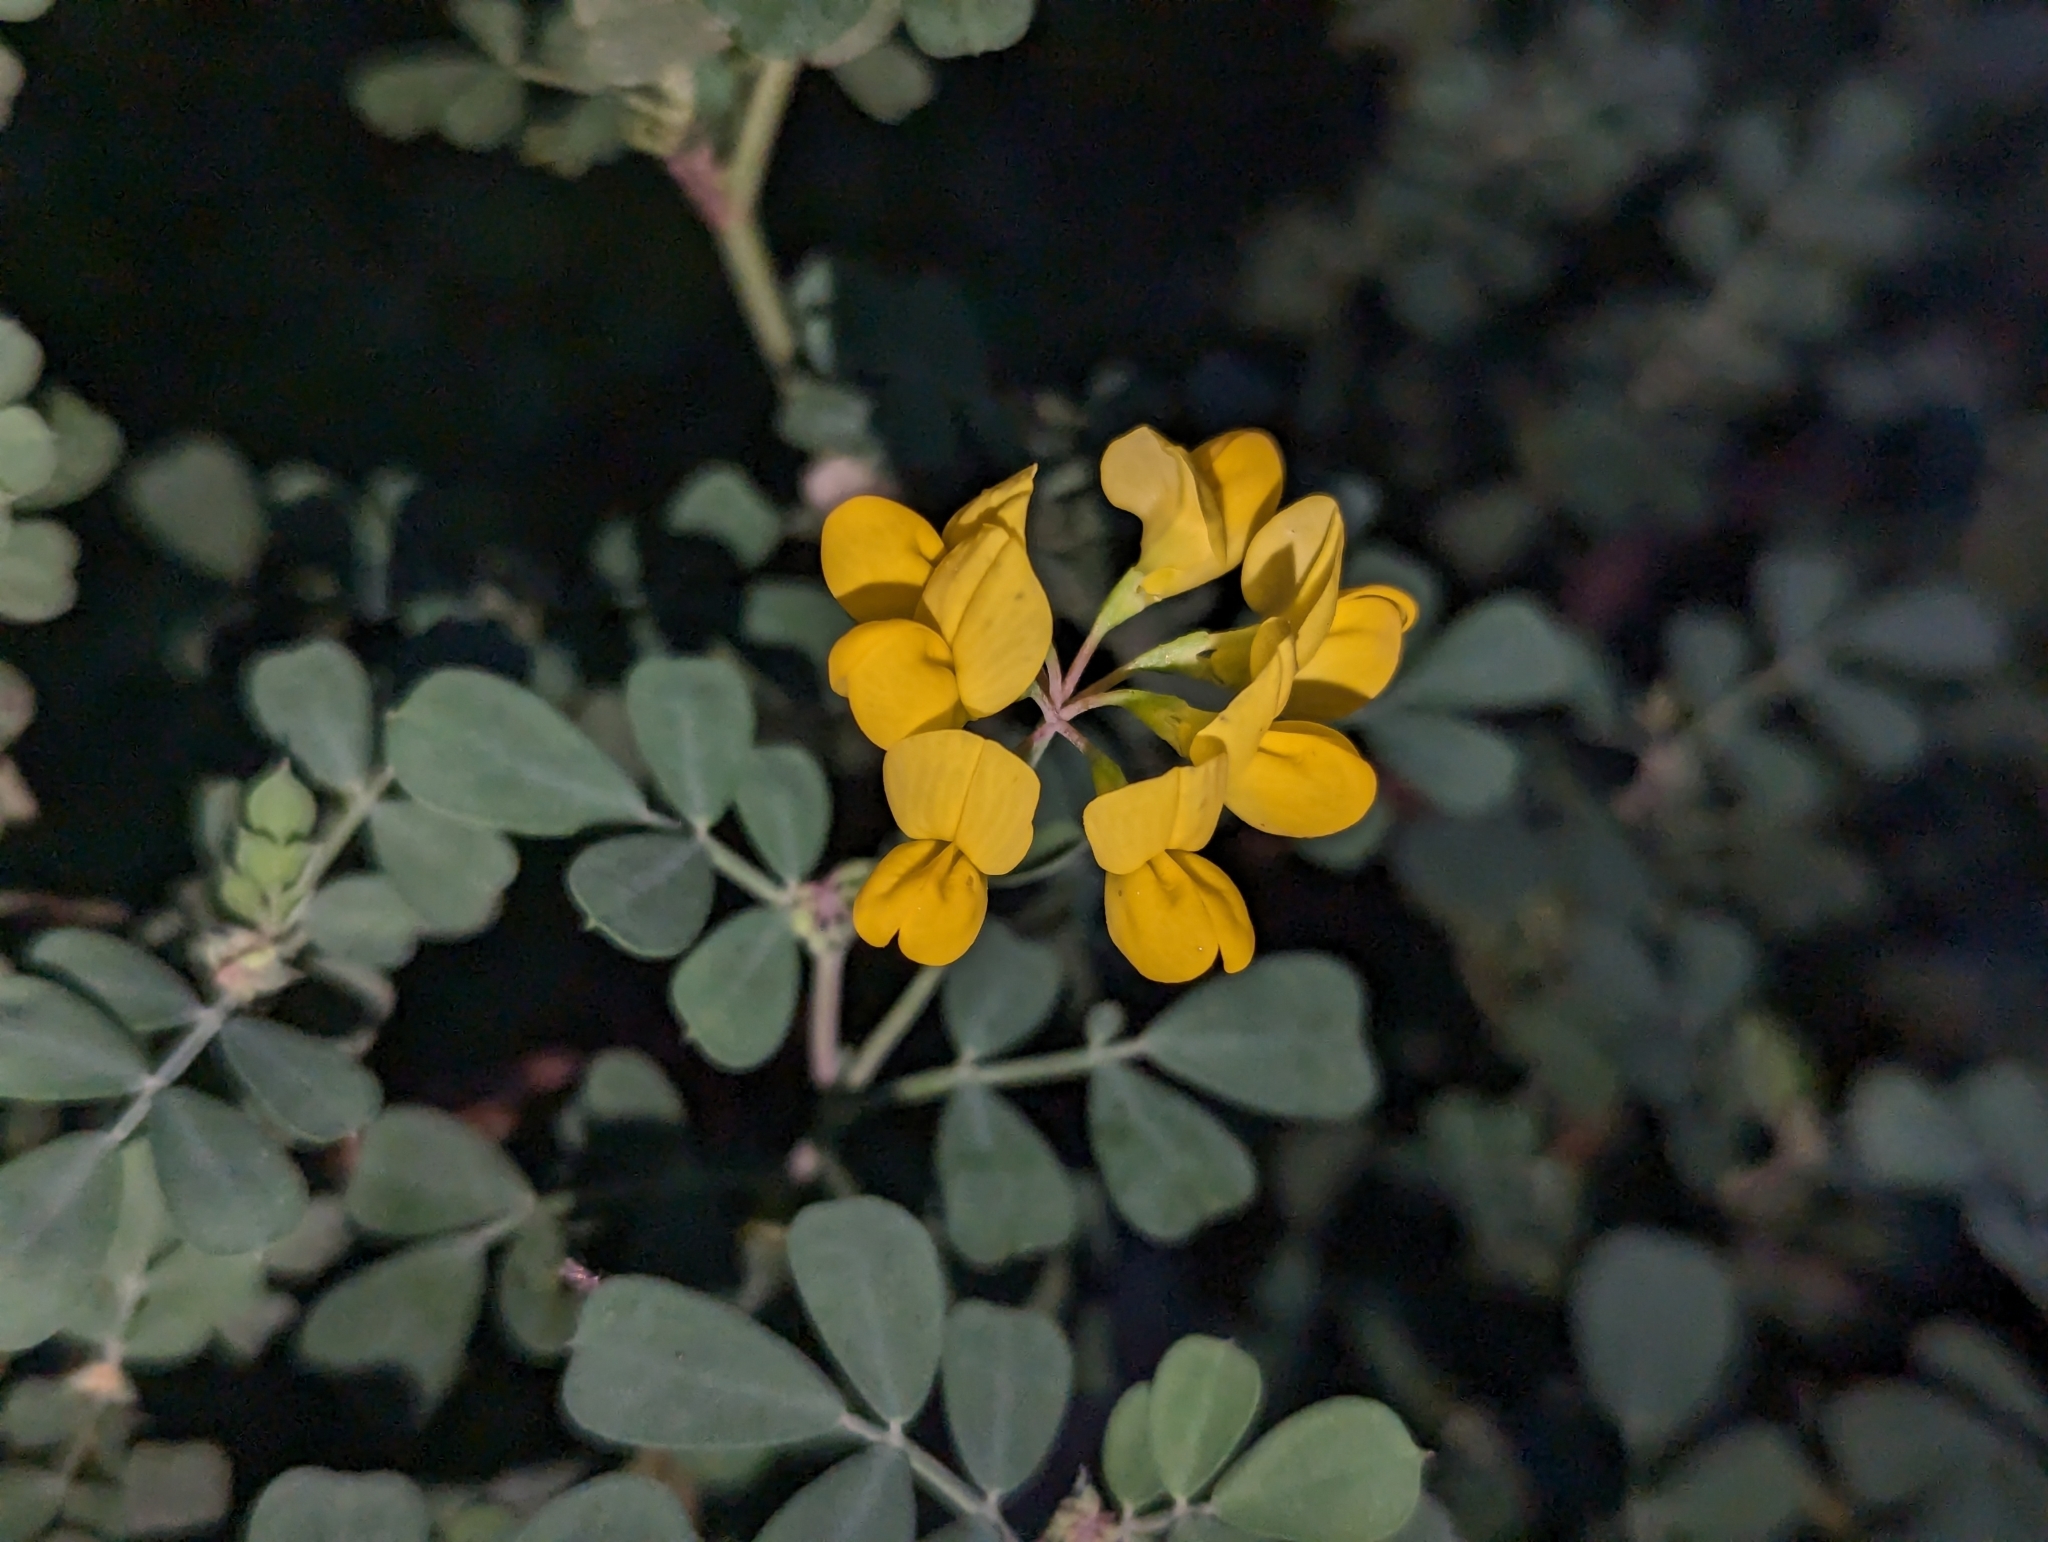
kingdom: Plantae
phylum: Tracheophyta
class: Magnoliopsida
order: Fabales
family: Fabaceae
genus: Coronilla
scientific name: Coronilla valentina
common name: Shrubby scorpion-vetch
